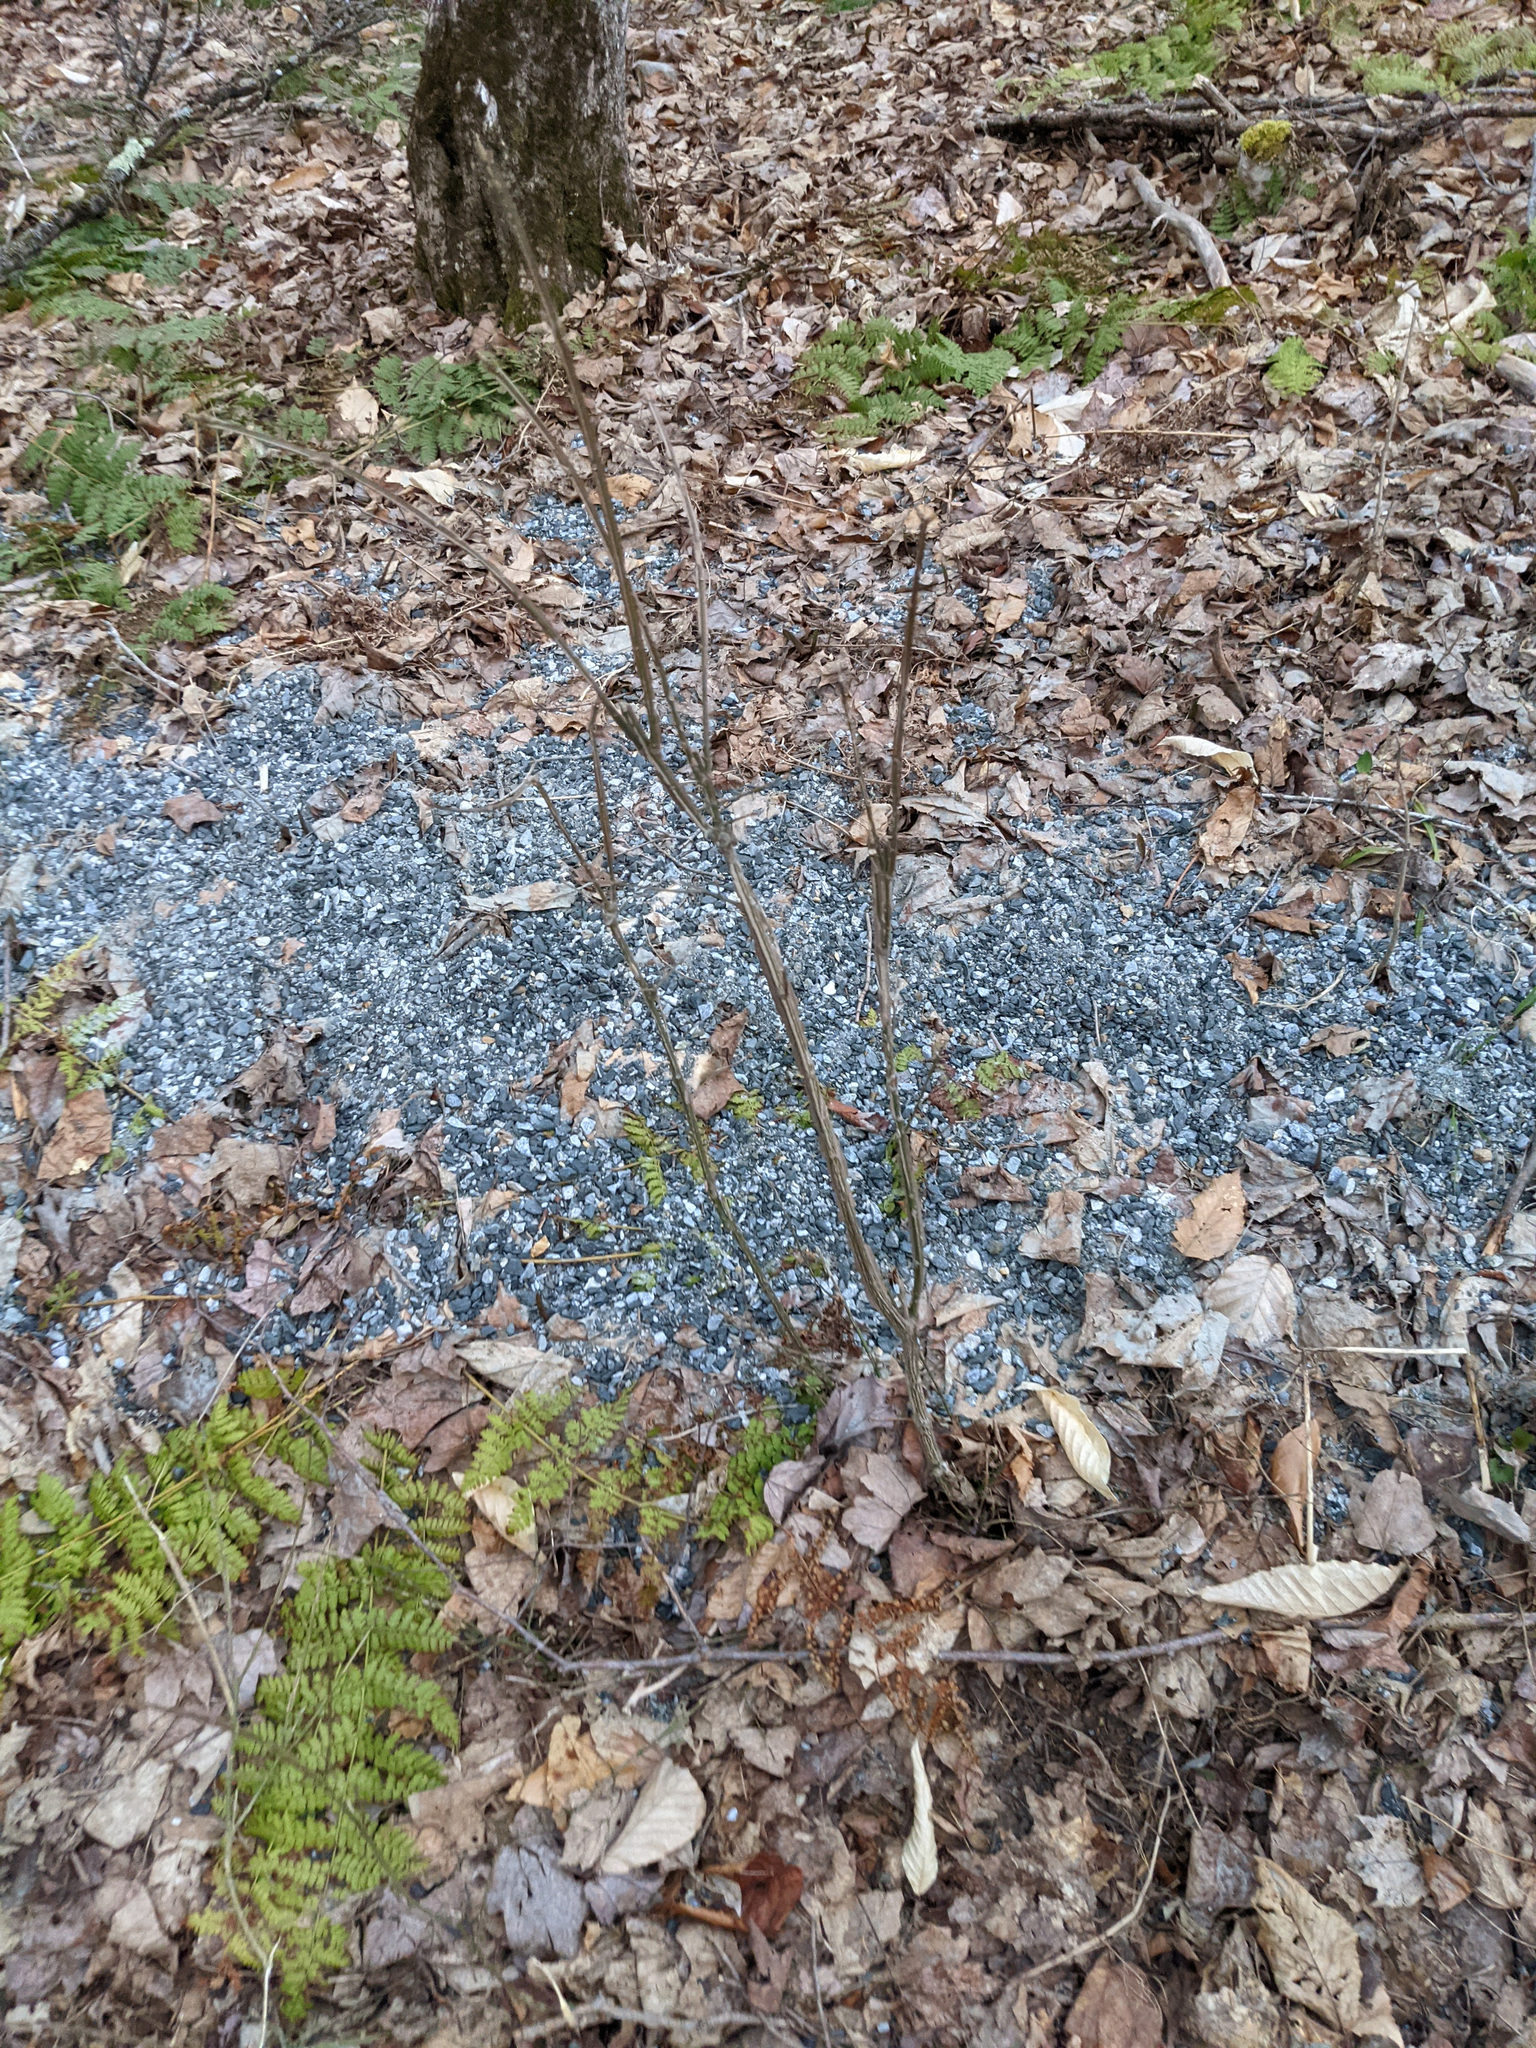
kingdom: Plantae
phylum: Tracheophyta
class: Magnoliopsida
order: Celastrales
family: Celastraceae
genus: Euonymus
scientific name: Euonymus alatus
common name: Winged euonymus
